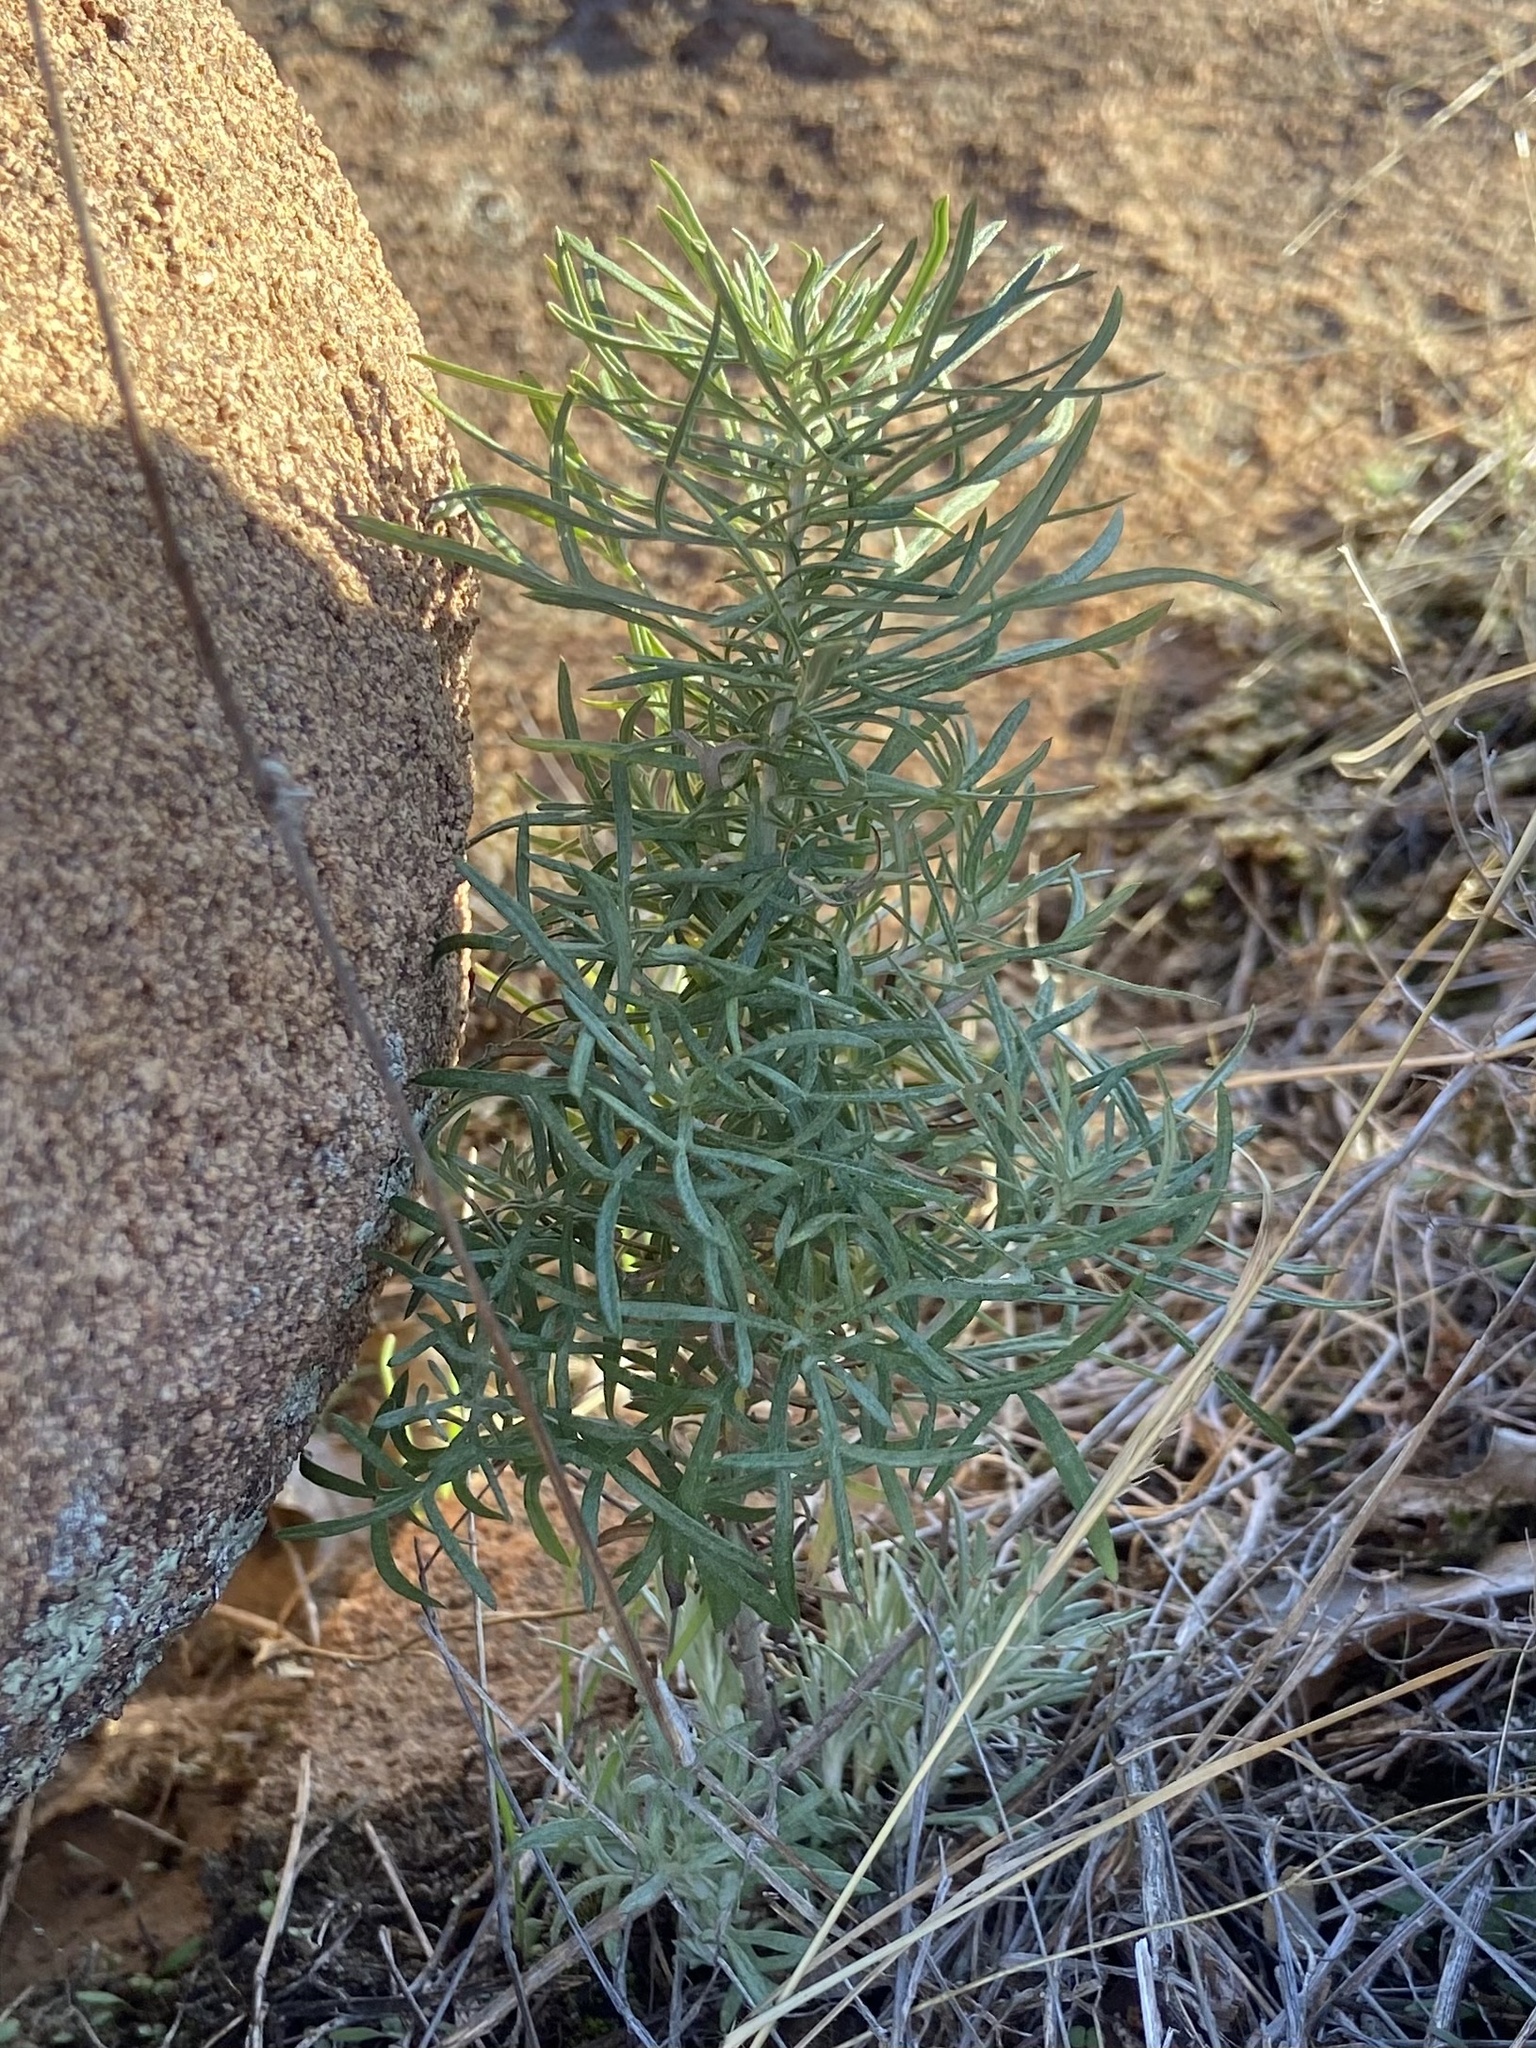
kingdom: Plantae
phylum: Tracheophyta
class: Magnoliopsida
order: Asterales
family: Asteraceae
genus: Artemisia
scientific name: Artemisia ludoviciana
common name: Western mugwort
